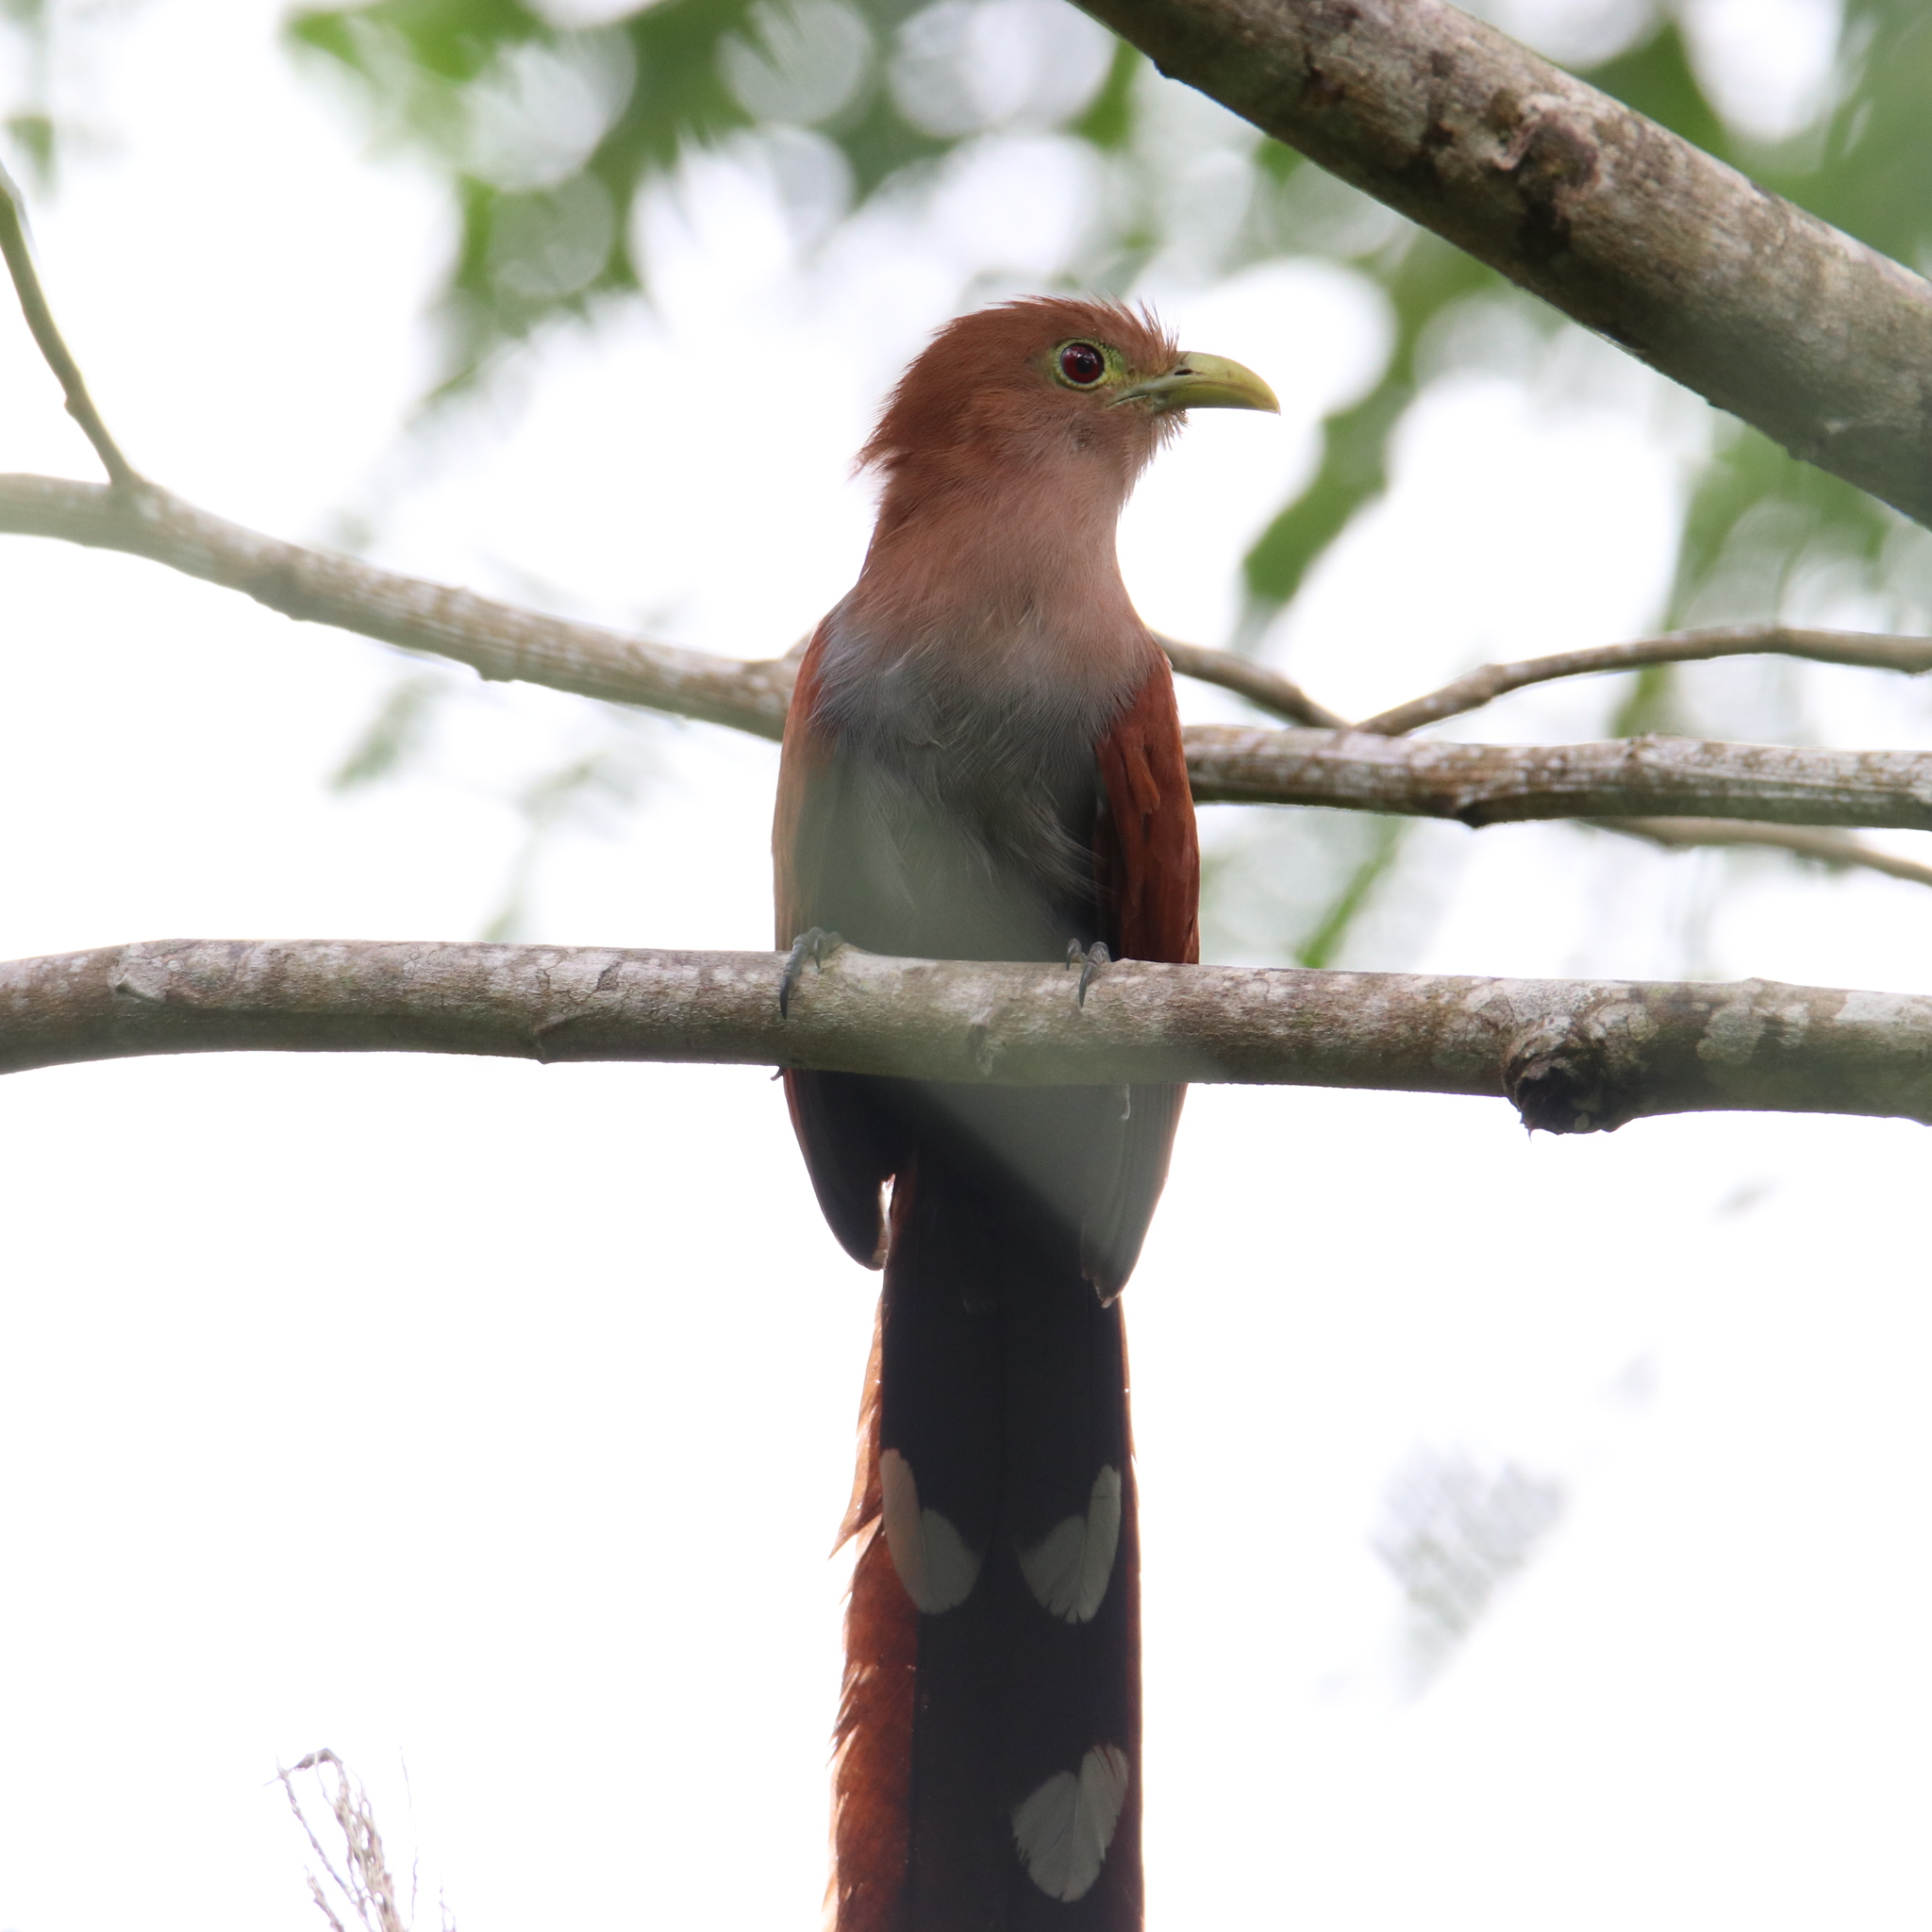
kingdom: Animalia
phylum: Chordata
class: Aves
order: Cuculiformes
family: Cuculidae
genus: Piaya
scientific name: Piaya cayana
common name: Squirrel cuckoo
